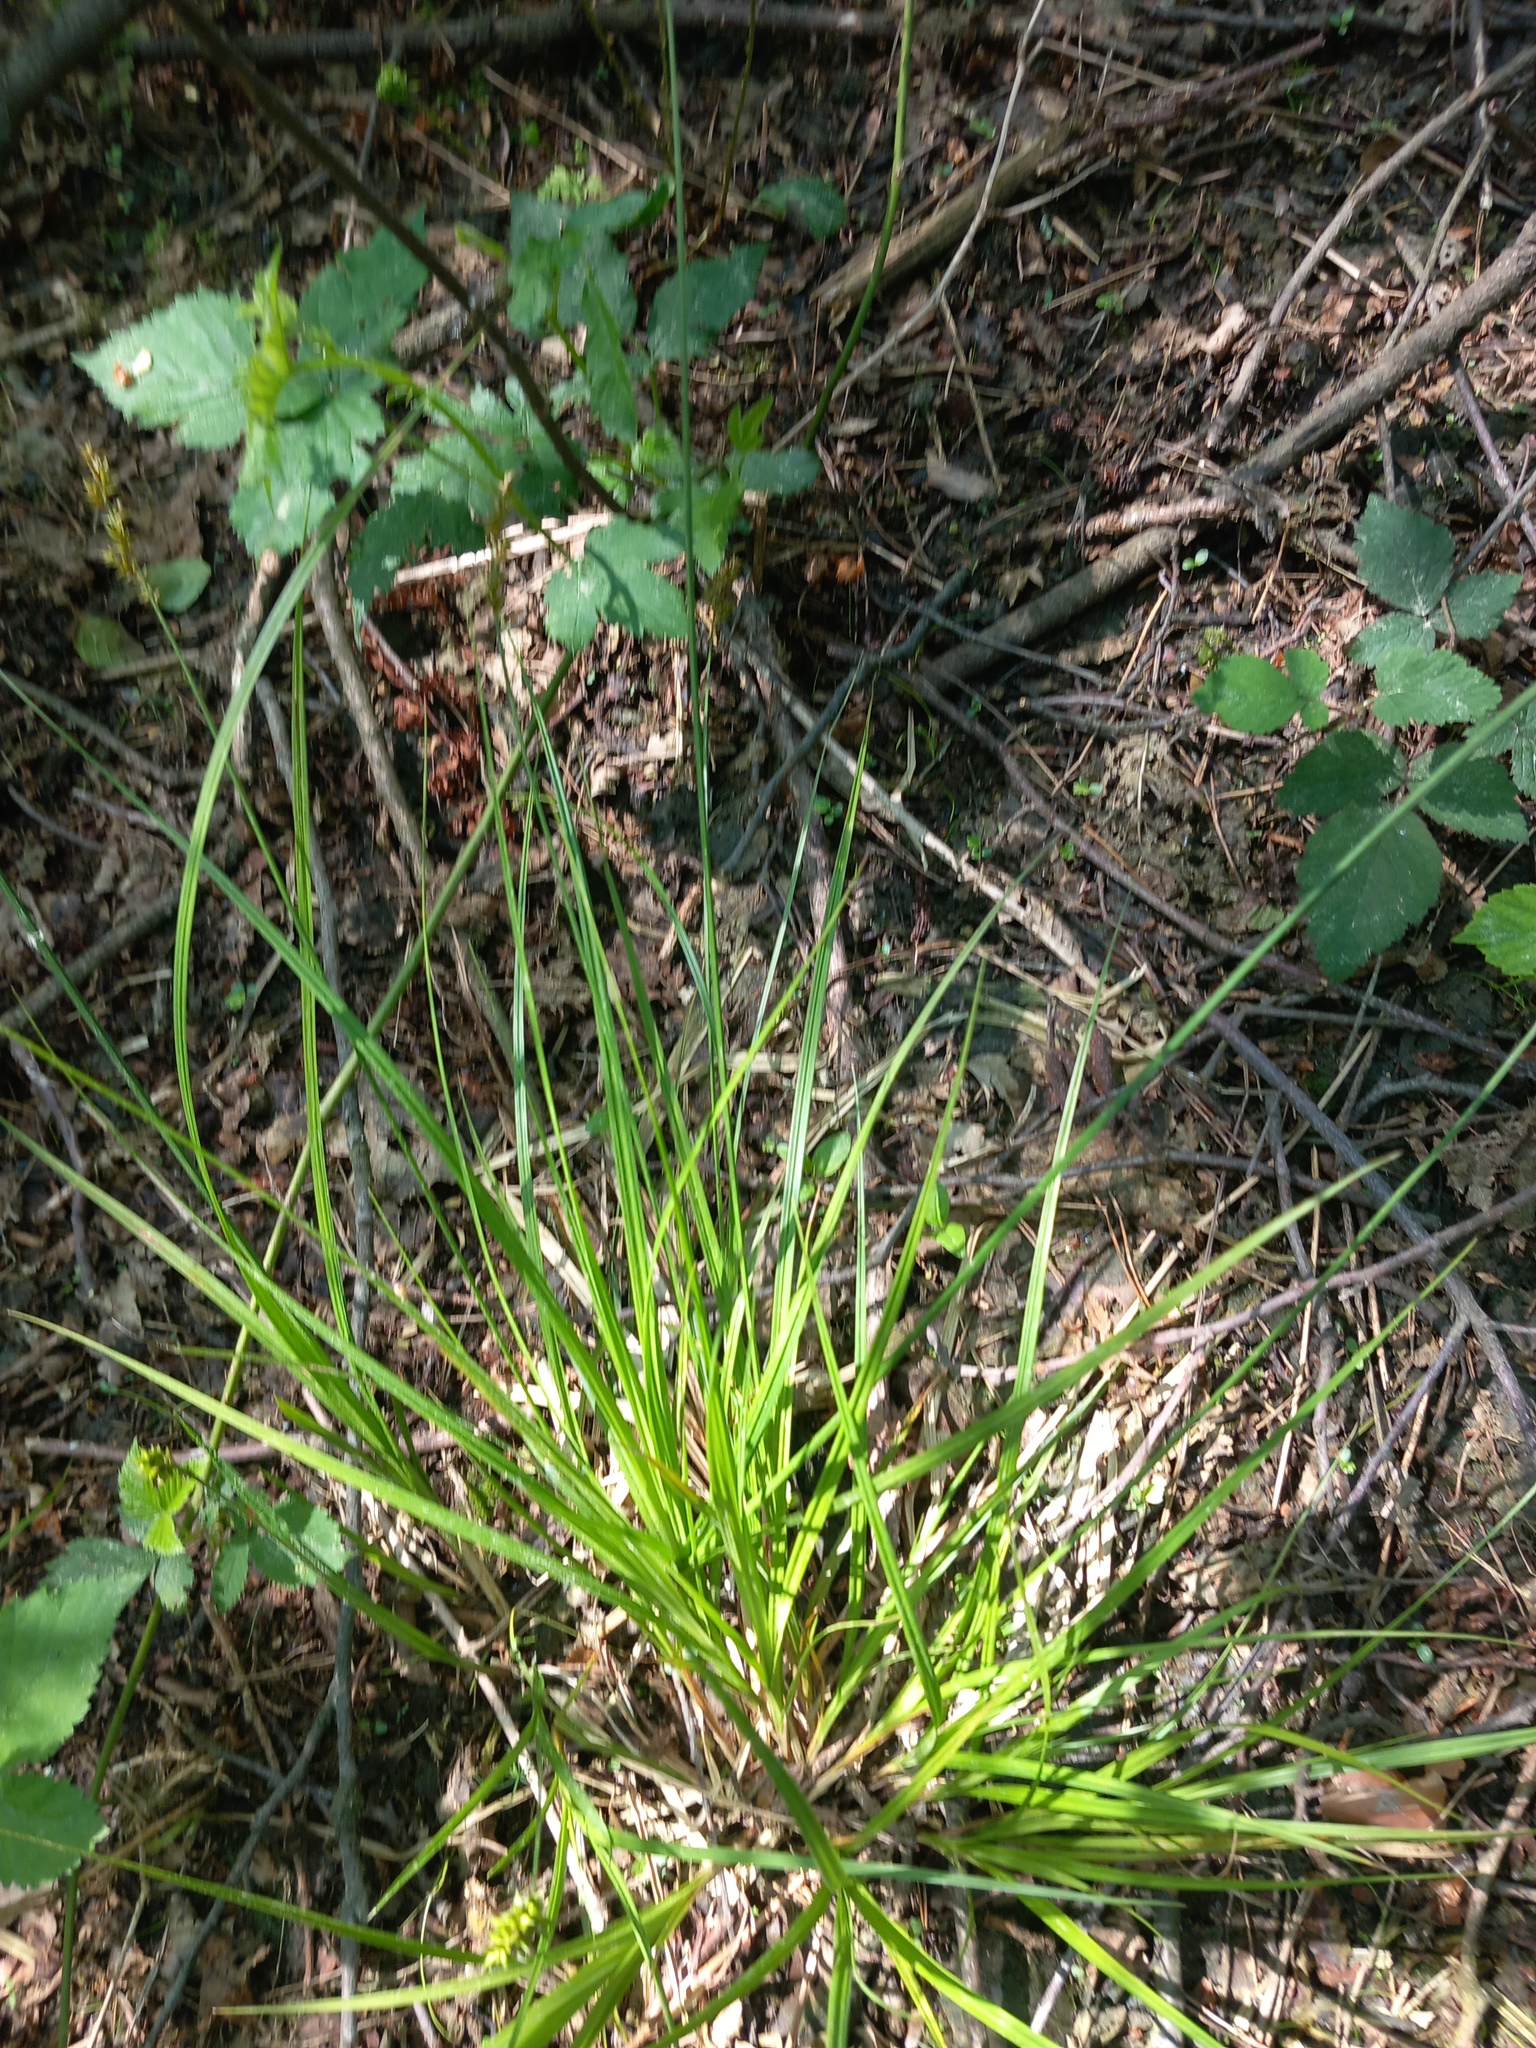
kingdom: Plantae
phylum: Tracheophyta
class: Liliopsida
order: Poales
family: Cyperaceae
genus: Carex
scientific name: Carex elongata
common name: Elongated sedge
